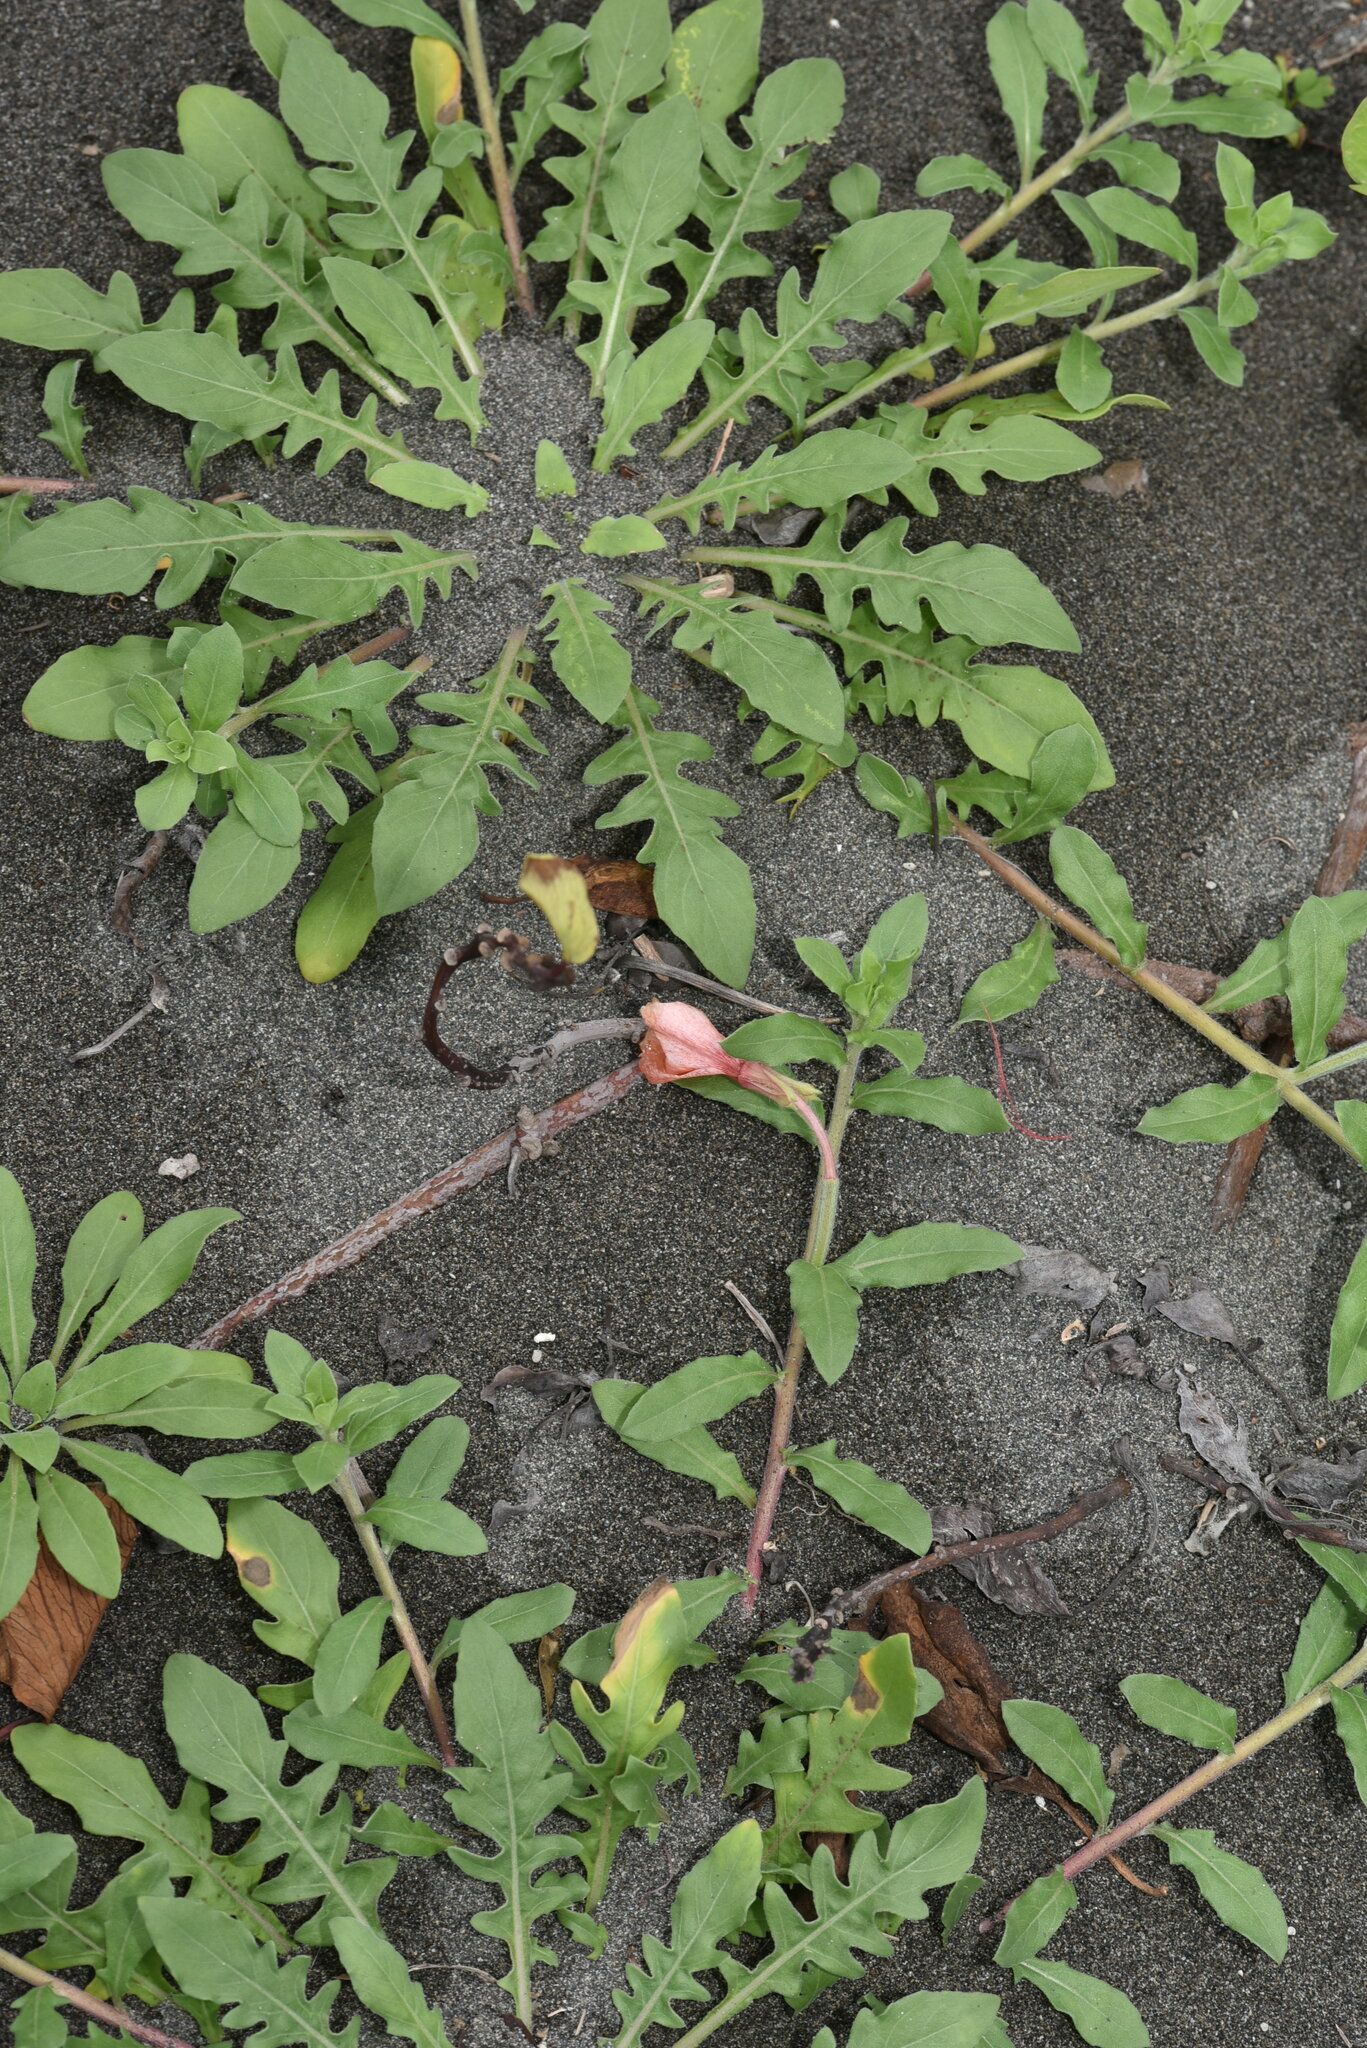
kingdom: Plantae
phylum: Tracheophyta
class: Magnoliopsida
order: Myrtales
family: Onagraceae
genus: Oenothera
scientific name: Oenothera laciniata
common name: Cut-leaved evening-primrose
